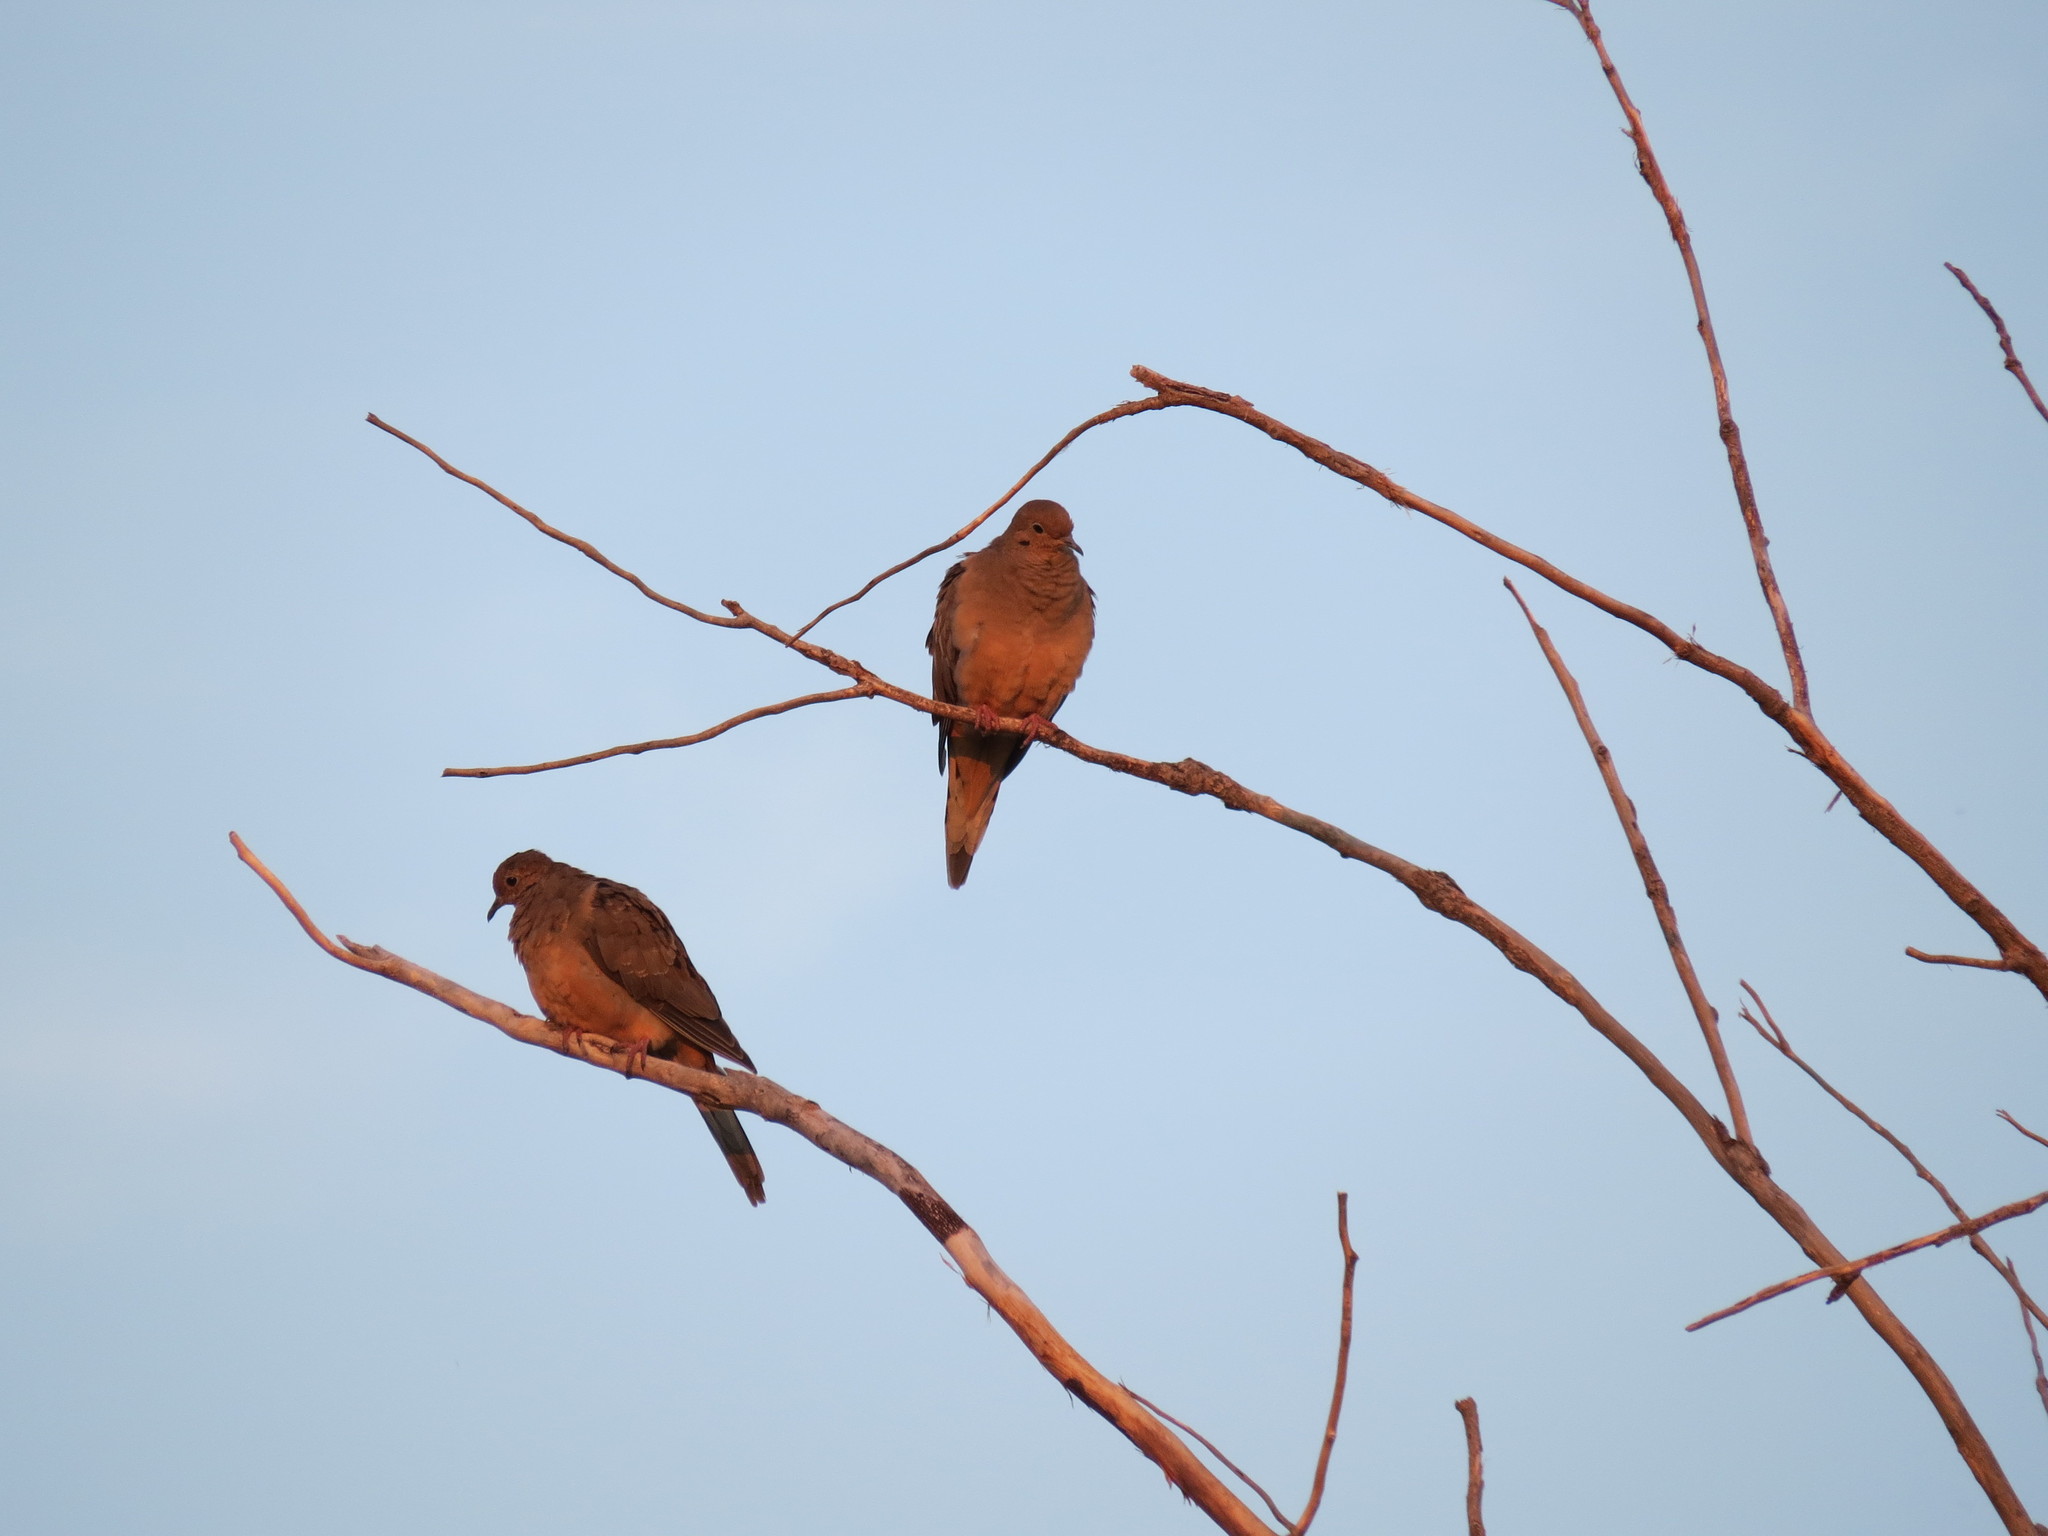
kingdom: Animalia
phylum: Chordata
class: Aves
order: Columbiformes
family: Columbidae
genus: Zenaida
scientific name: Zenaida macroura
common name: Mourning dove
